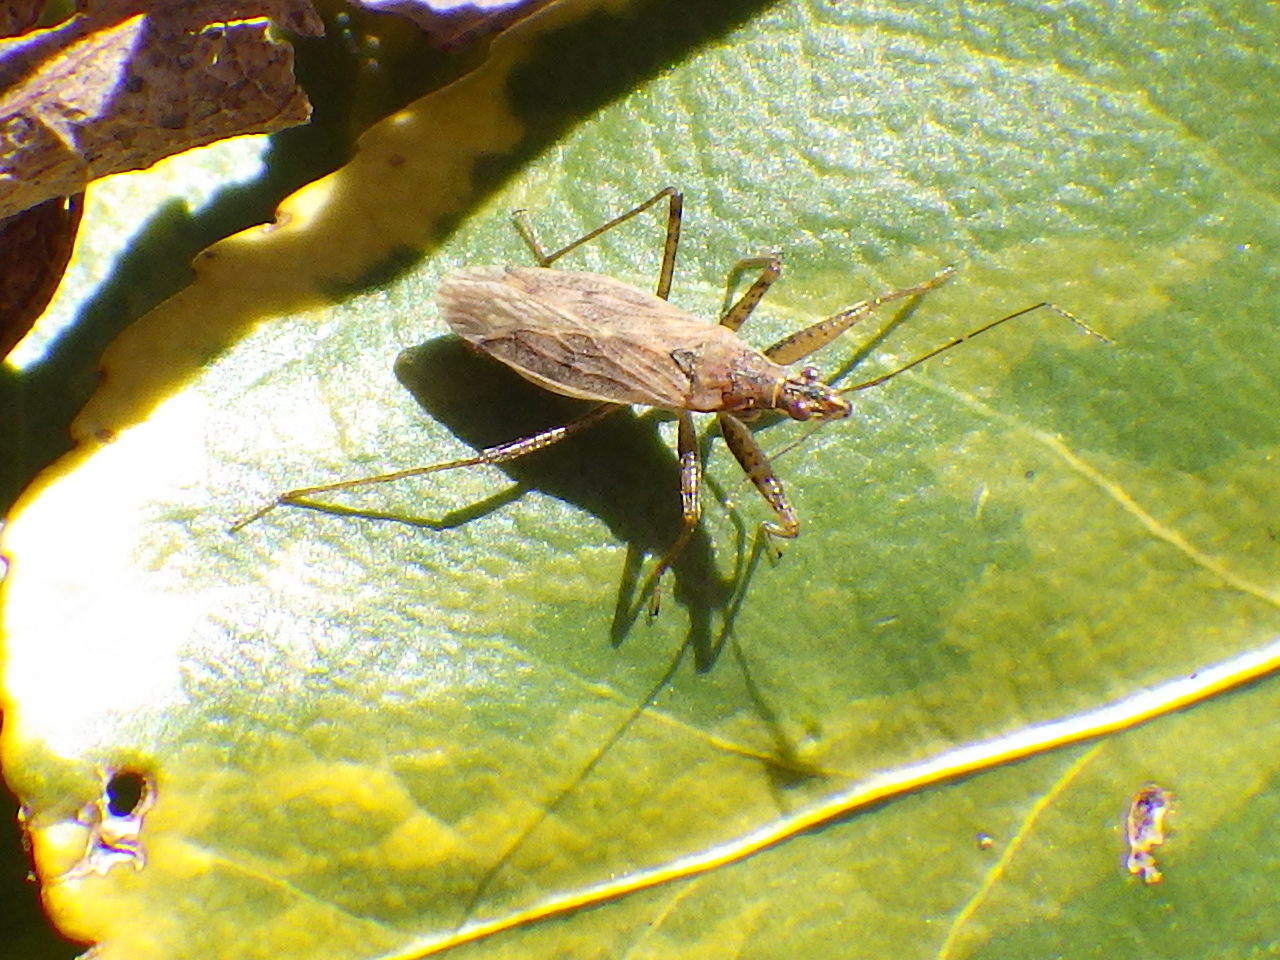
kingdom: Animalia
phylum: Arthropoda
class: Insecta
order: Hemiptera
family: Nabidae
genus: Nabis
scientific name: Nabis roseipennis
